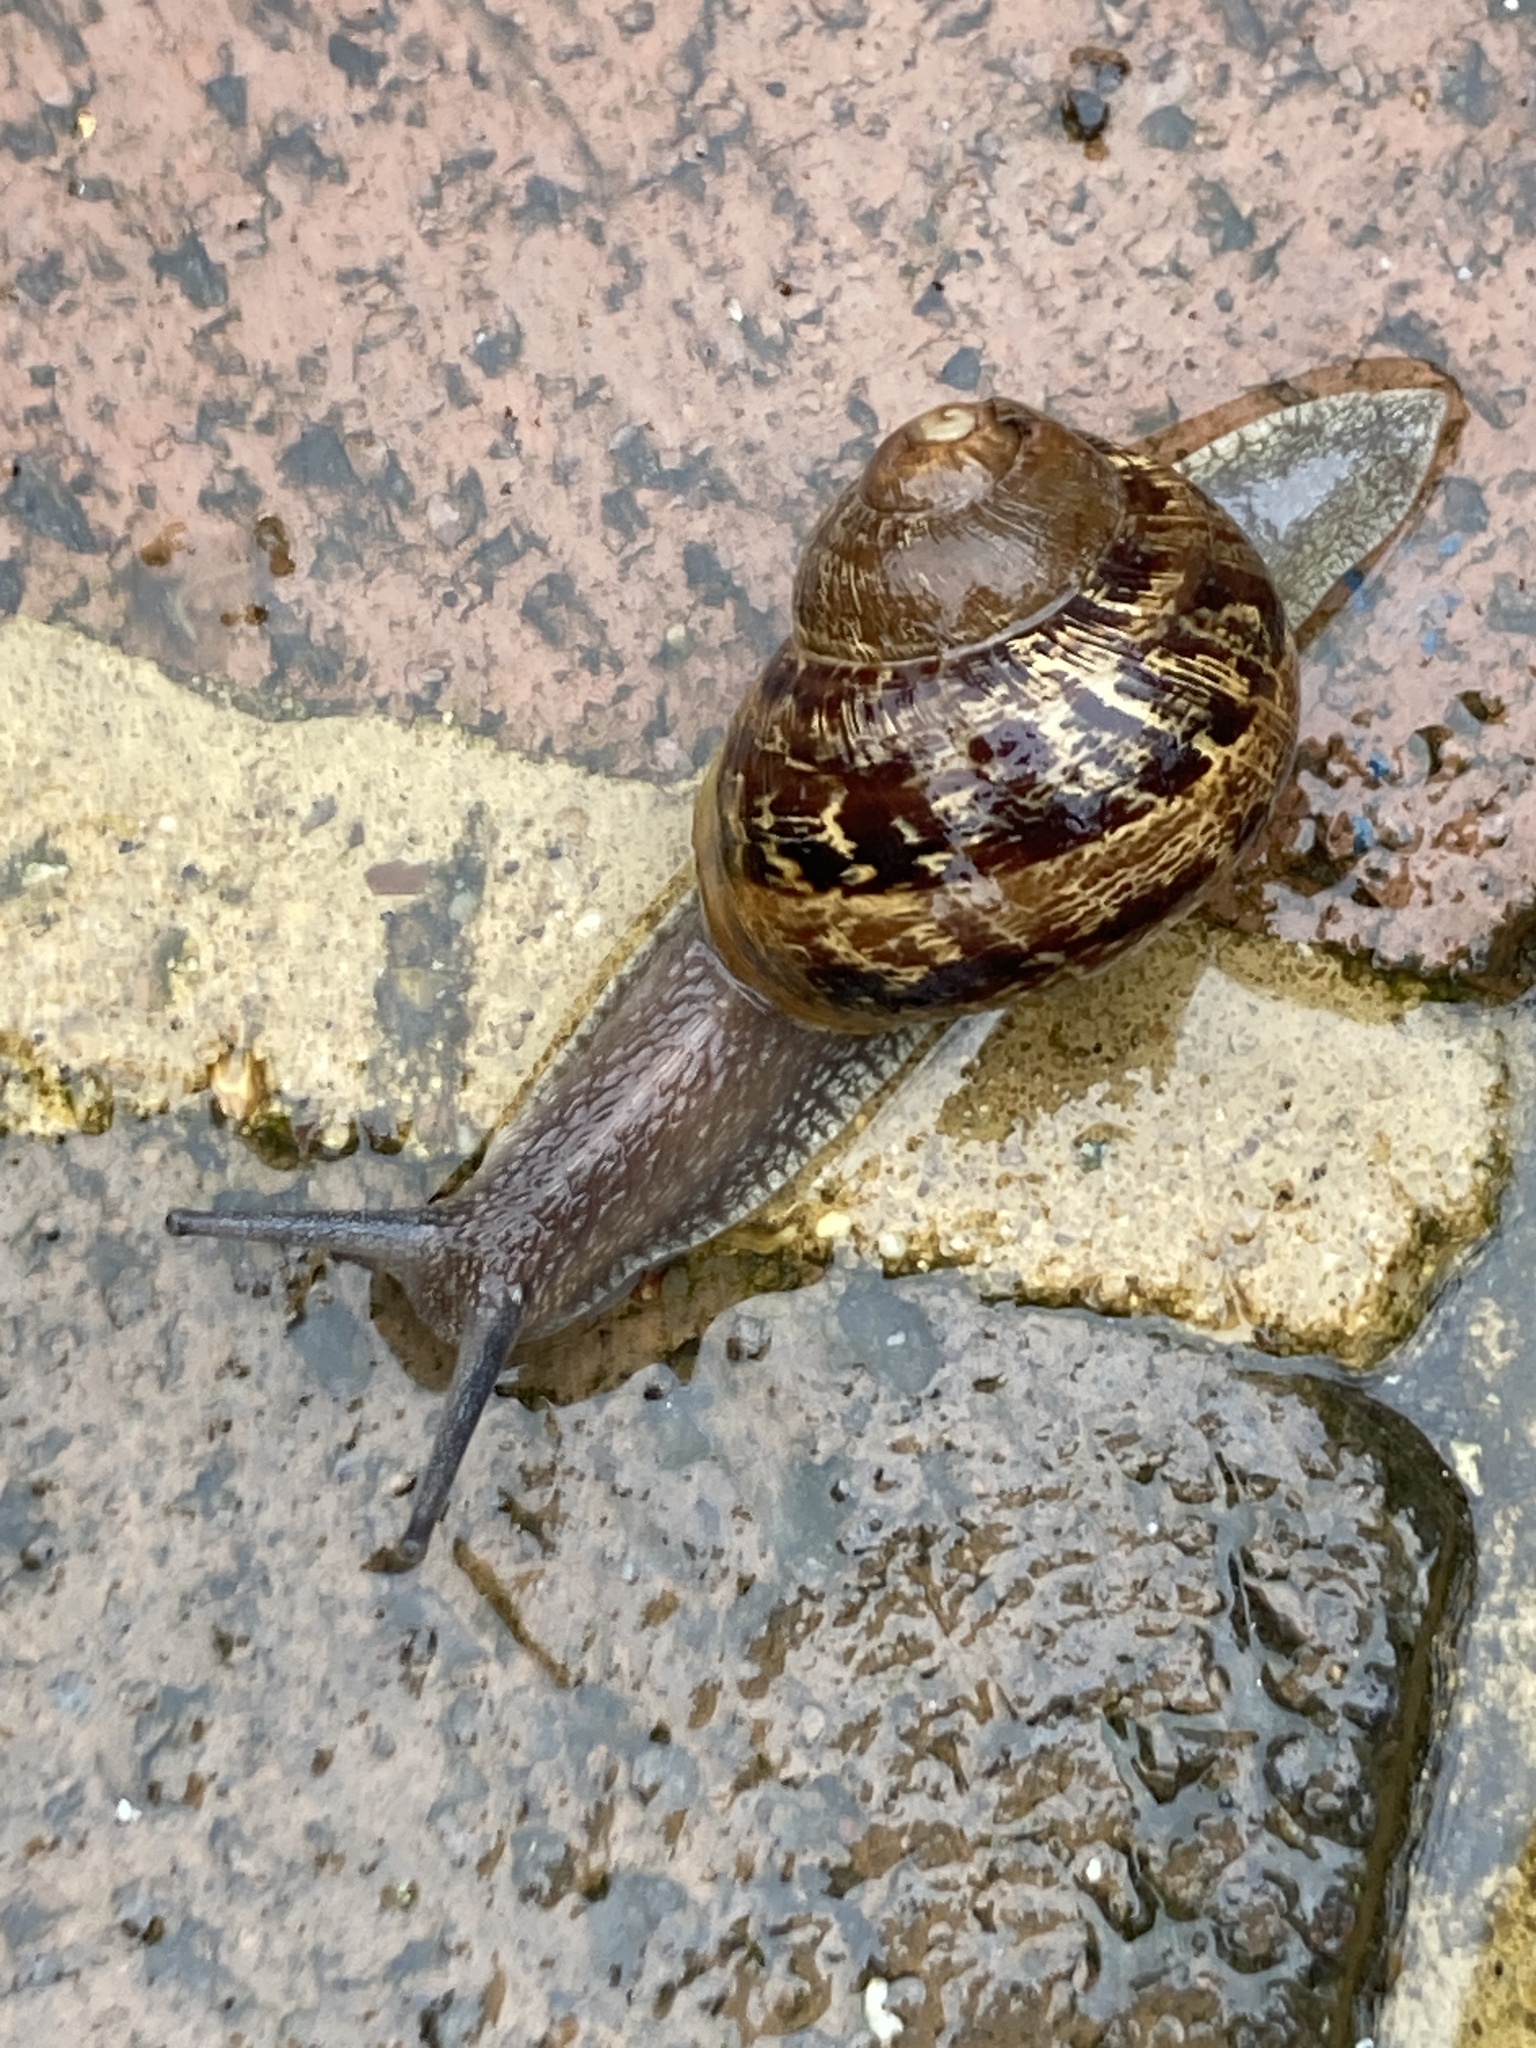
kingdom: Animalia
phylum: Mollusca
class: Gastropoda
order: Stylommatophora
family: Helicidae
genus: Cornu
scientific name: Cornu aspersum
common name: Brown garden snail
